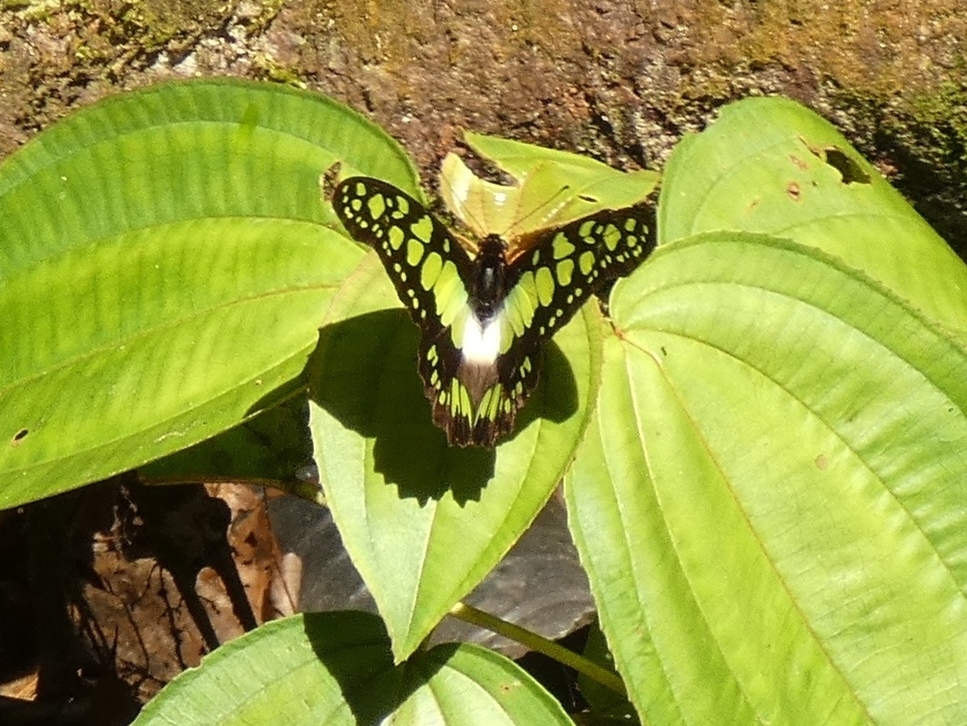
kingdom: Animalia
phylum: Arthropoda
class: Insecta
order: Lepidoptera
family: Papilionidae
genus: Graphium
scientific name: Graphium tynderaeus
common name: Electric green swordtail
